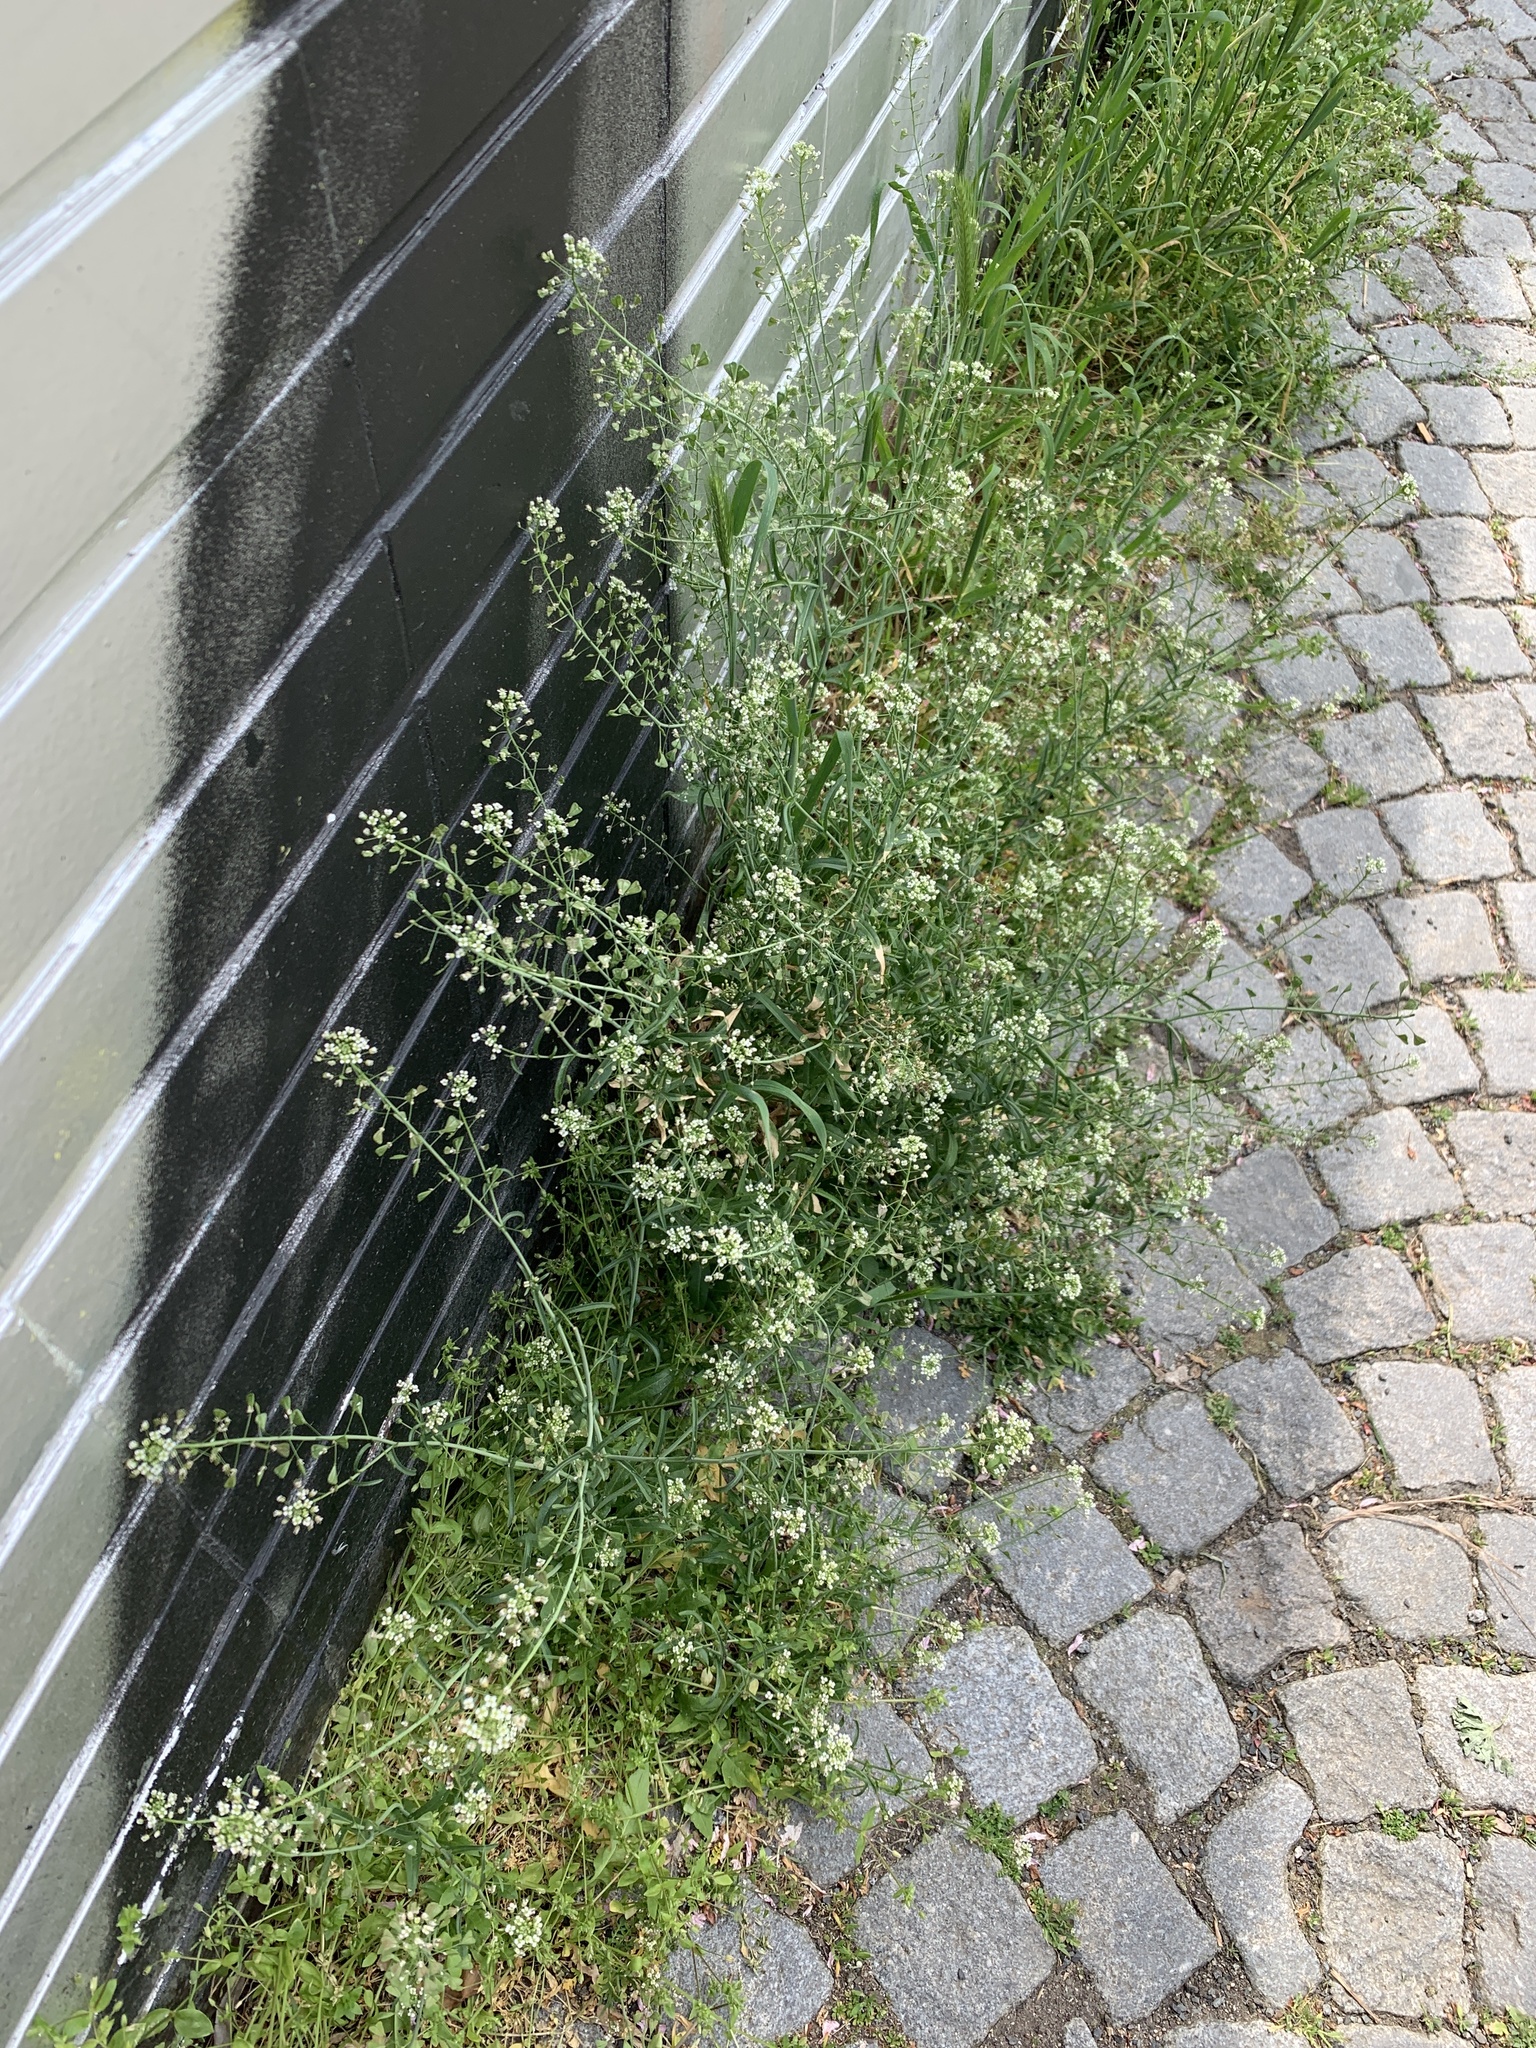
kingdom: Plantae
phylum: Tracheophyta
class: Magnoliopsida
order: Brassicales
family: Brassicaceae
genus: Capsella
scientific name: Capsella bursa-pastoris
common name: Shepherd's purse
